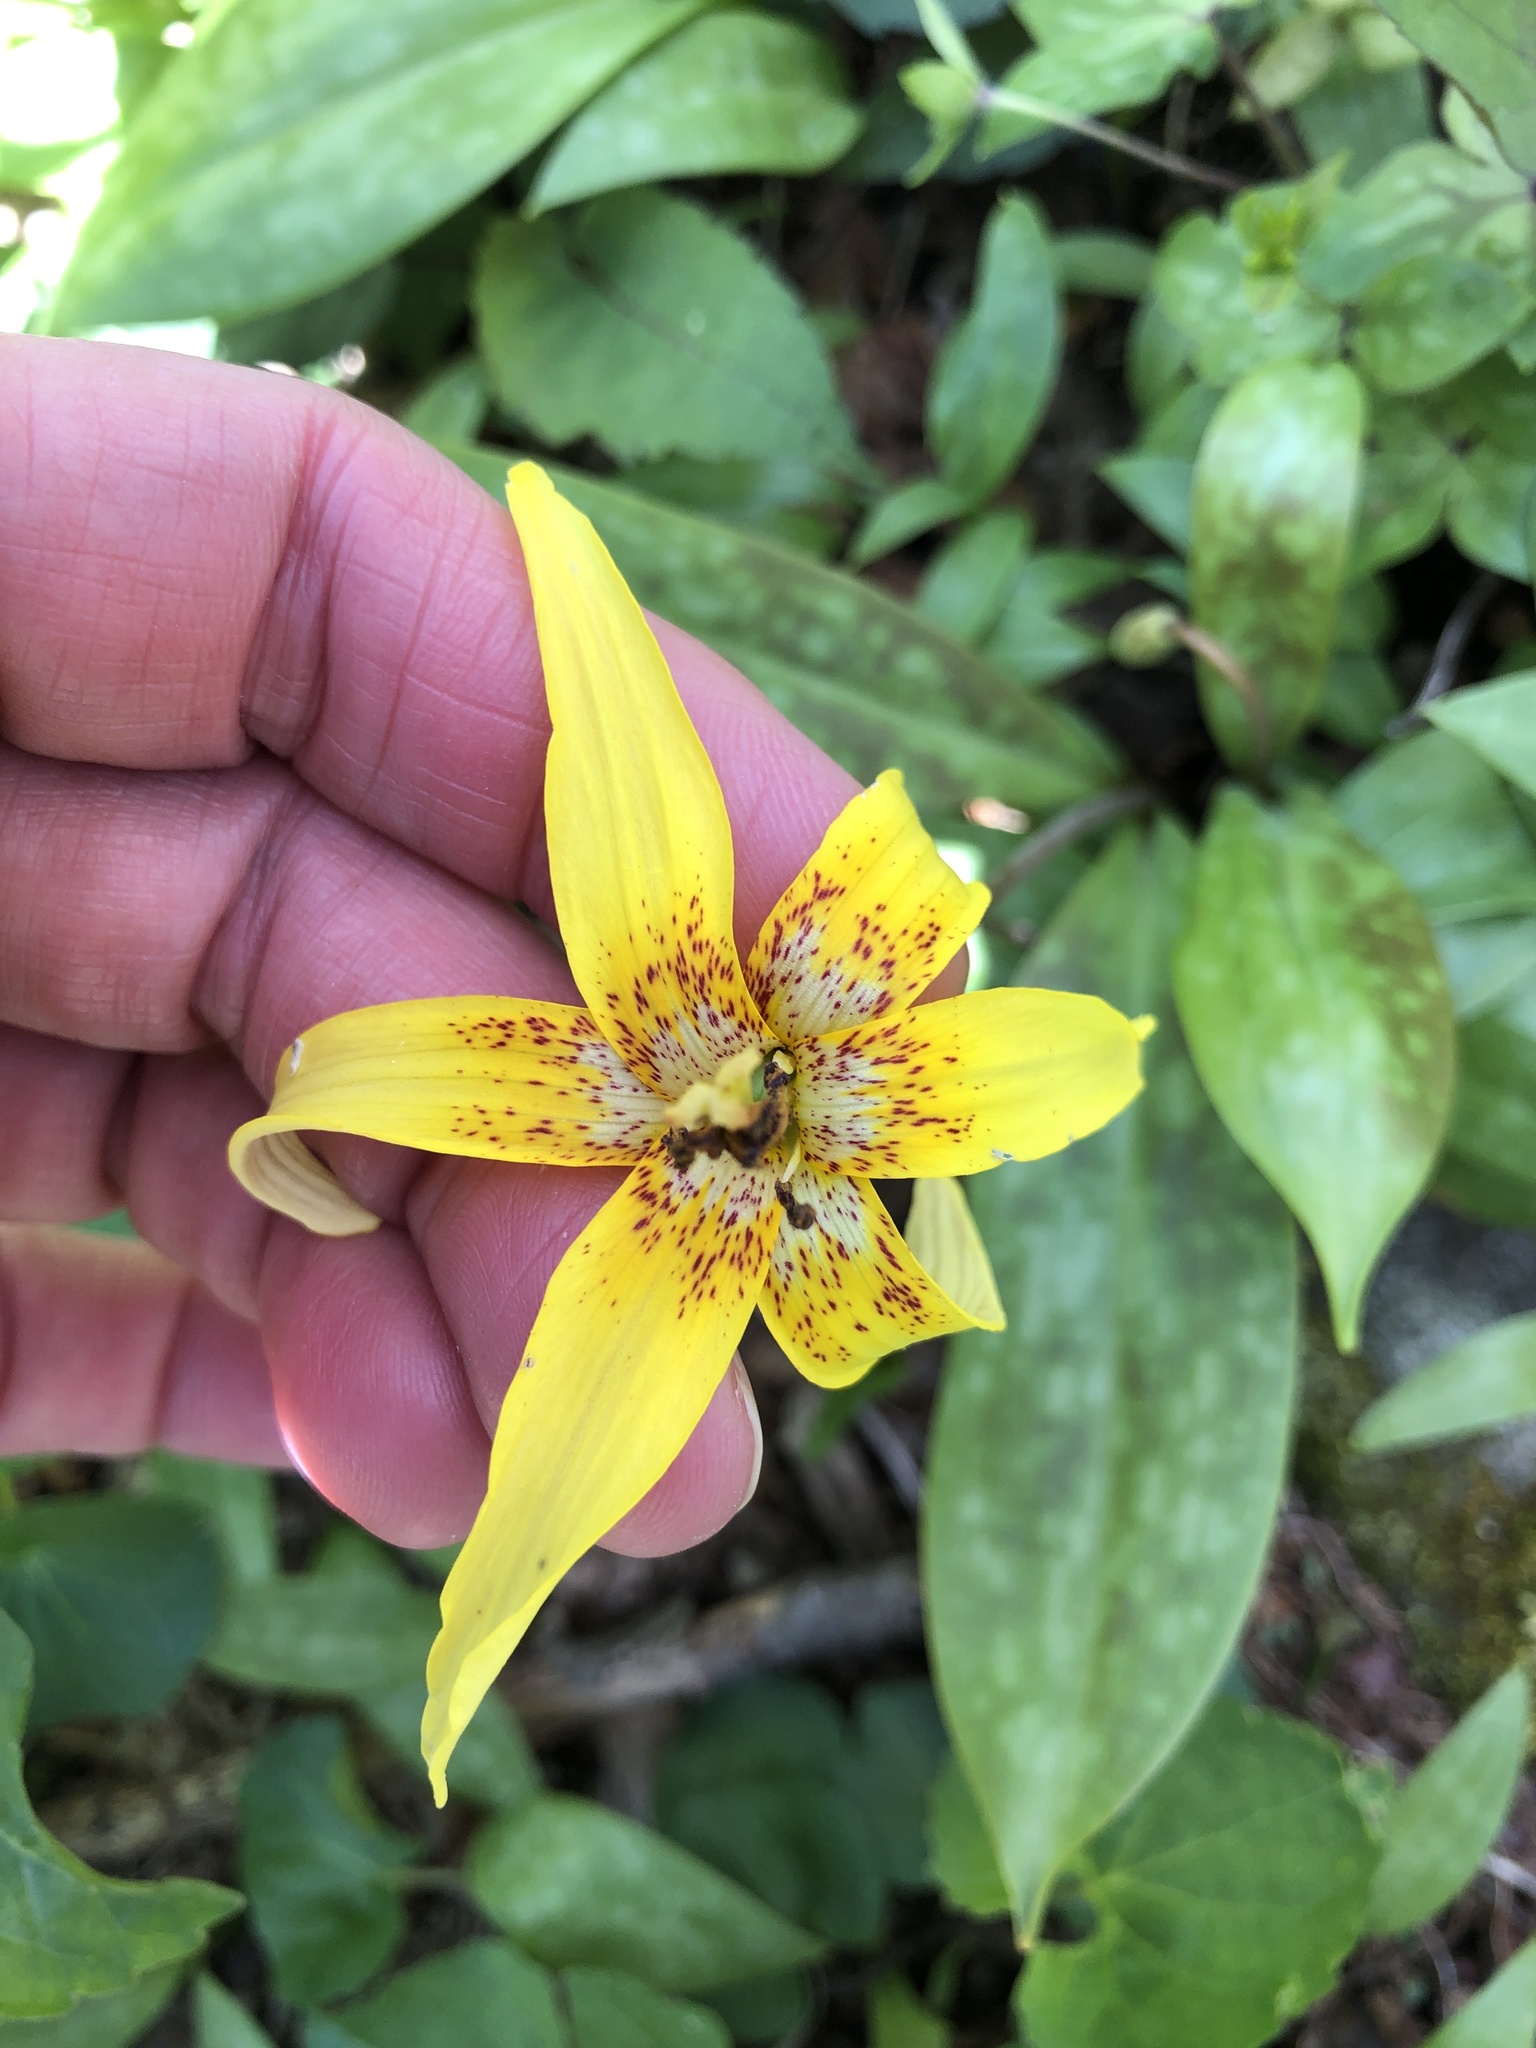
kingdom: Plantae
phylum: Tracheophyta
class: Liliopsida
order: Liliales
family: Liliaceae
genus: Erythronium
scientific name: Erythronium umbilicatum
